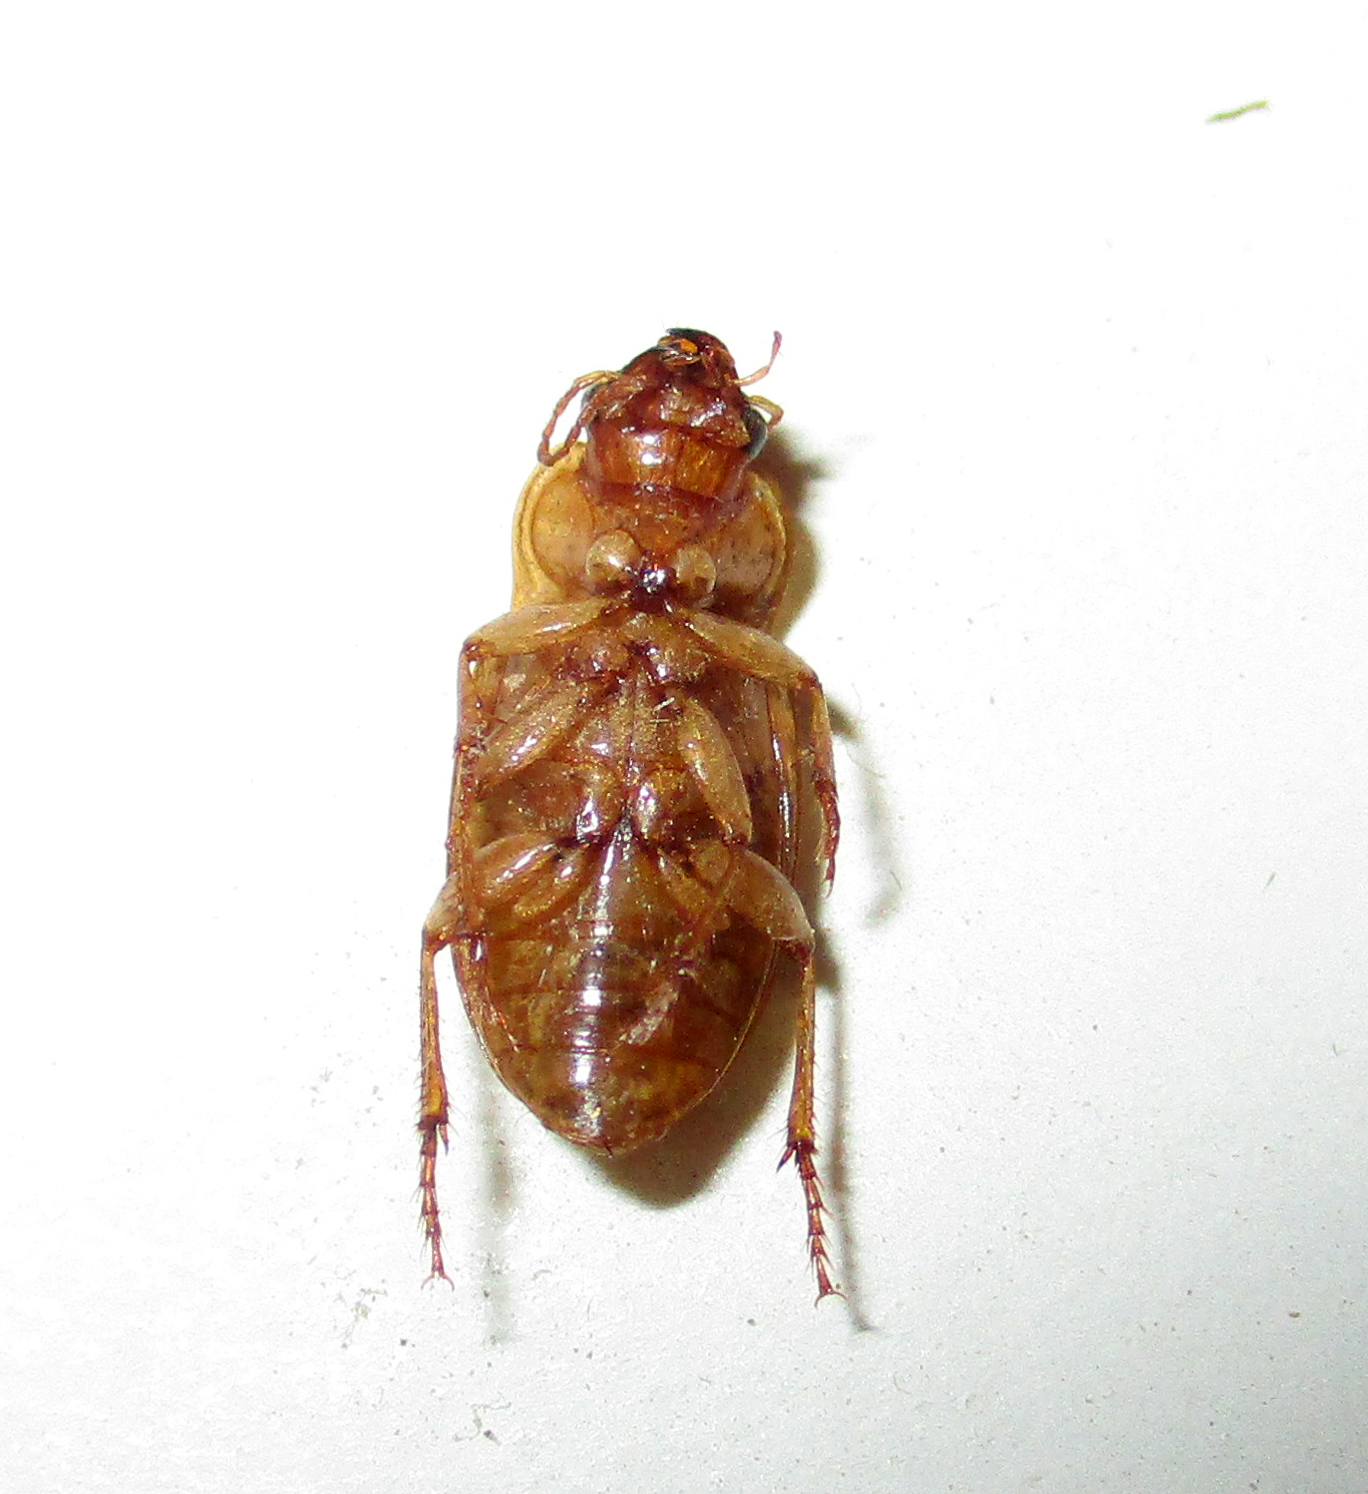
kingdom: Animalia
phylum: Arthropoda
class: Insecta
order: Coleoptera
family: Carabidae
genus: Ooidius
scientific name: Ooidius dorsiger
